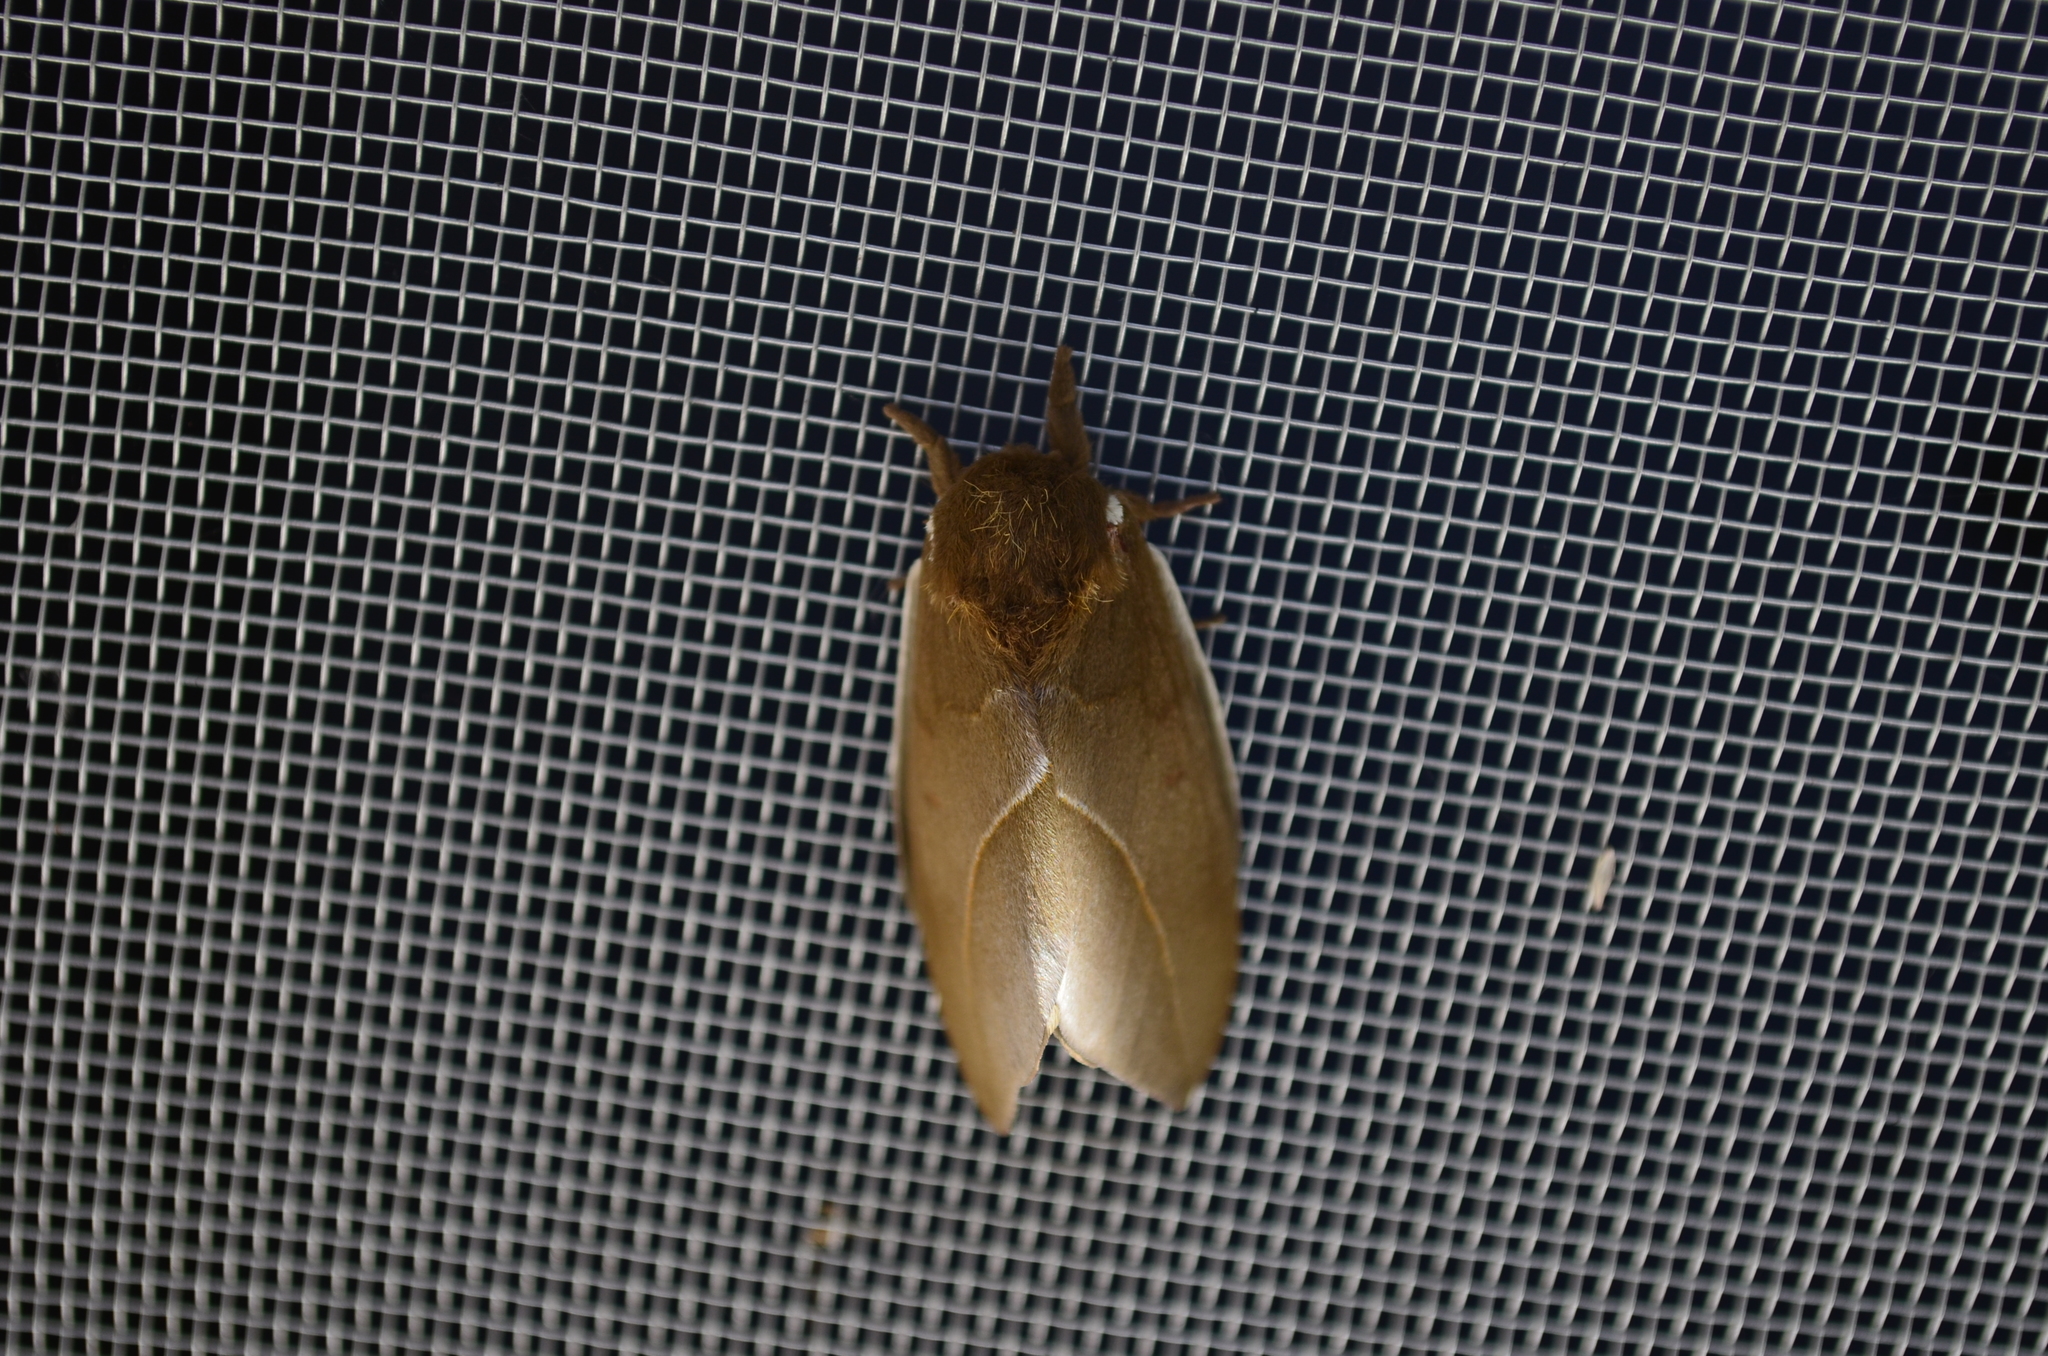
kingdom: Animalia
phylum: Arthropoda
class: Insecta
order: Lepidoptera
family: Saturniidae
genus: Automeris
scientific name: Automeris naranja
